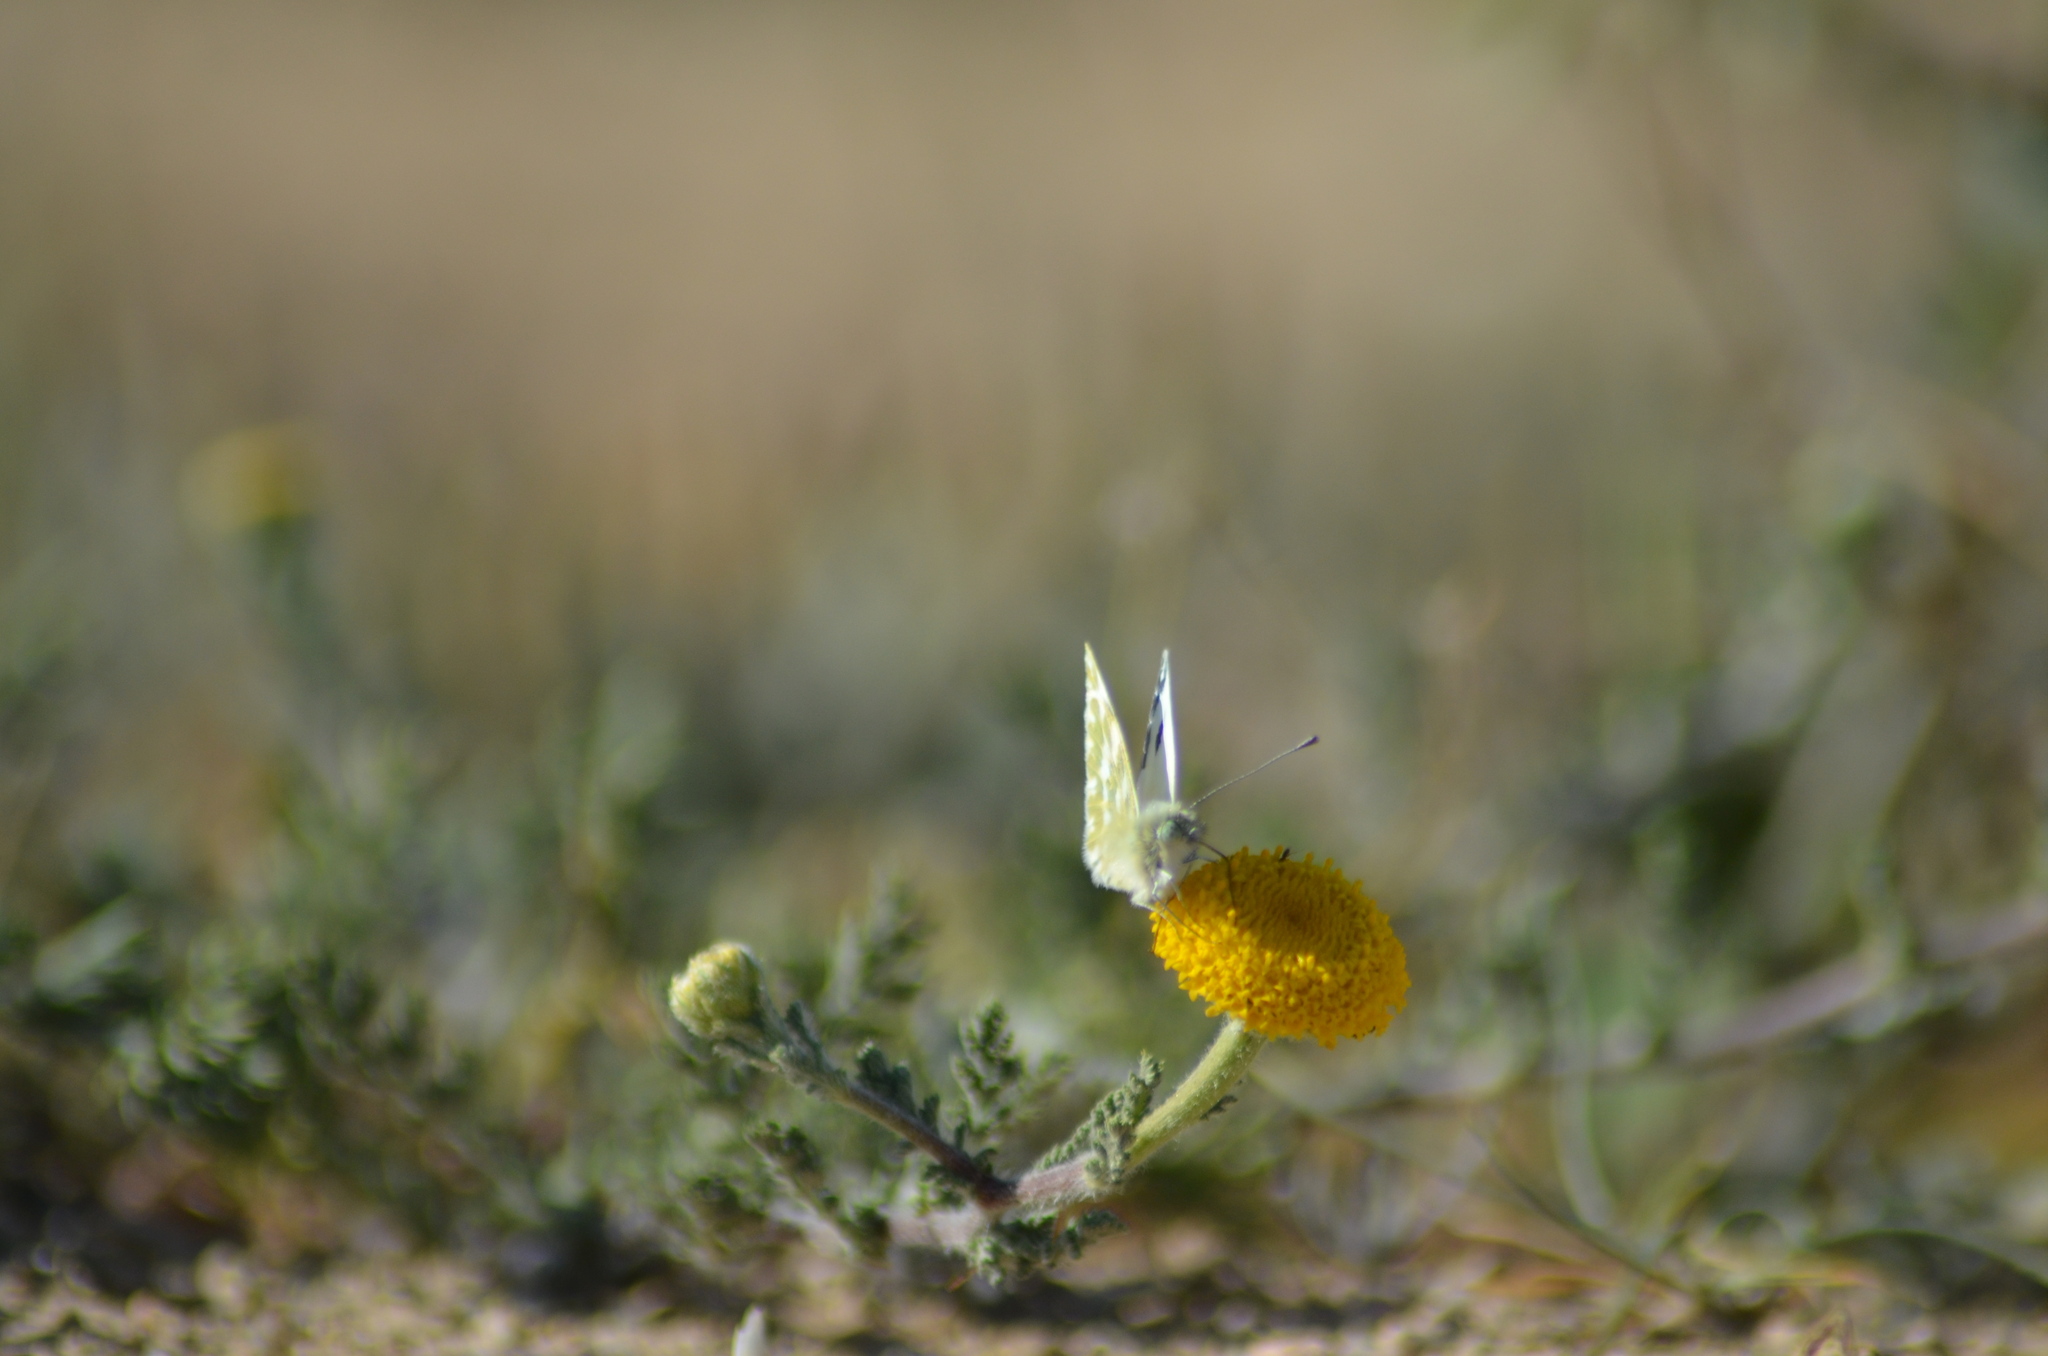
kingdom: Animalia
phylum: Arthropoda
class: Insecta
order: Lepidoptera
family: Pieridae
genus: Pontia
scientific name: Pontia daplidice
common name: Bath white
